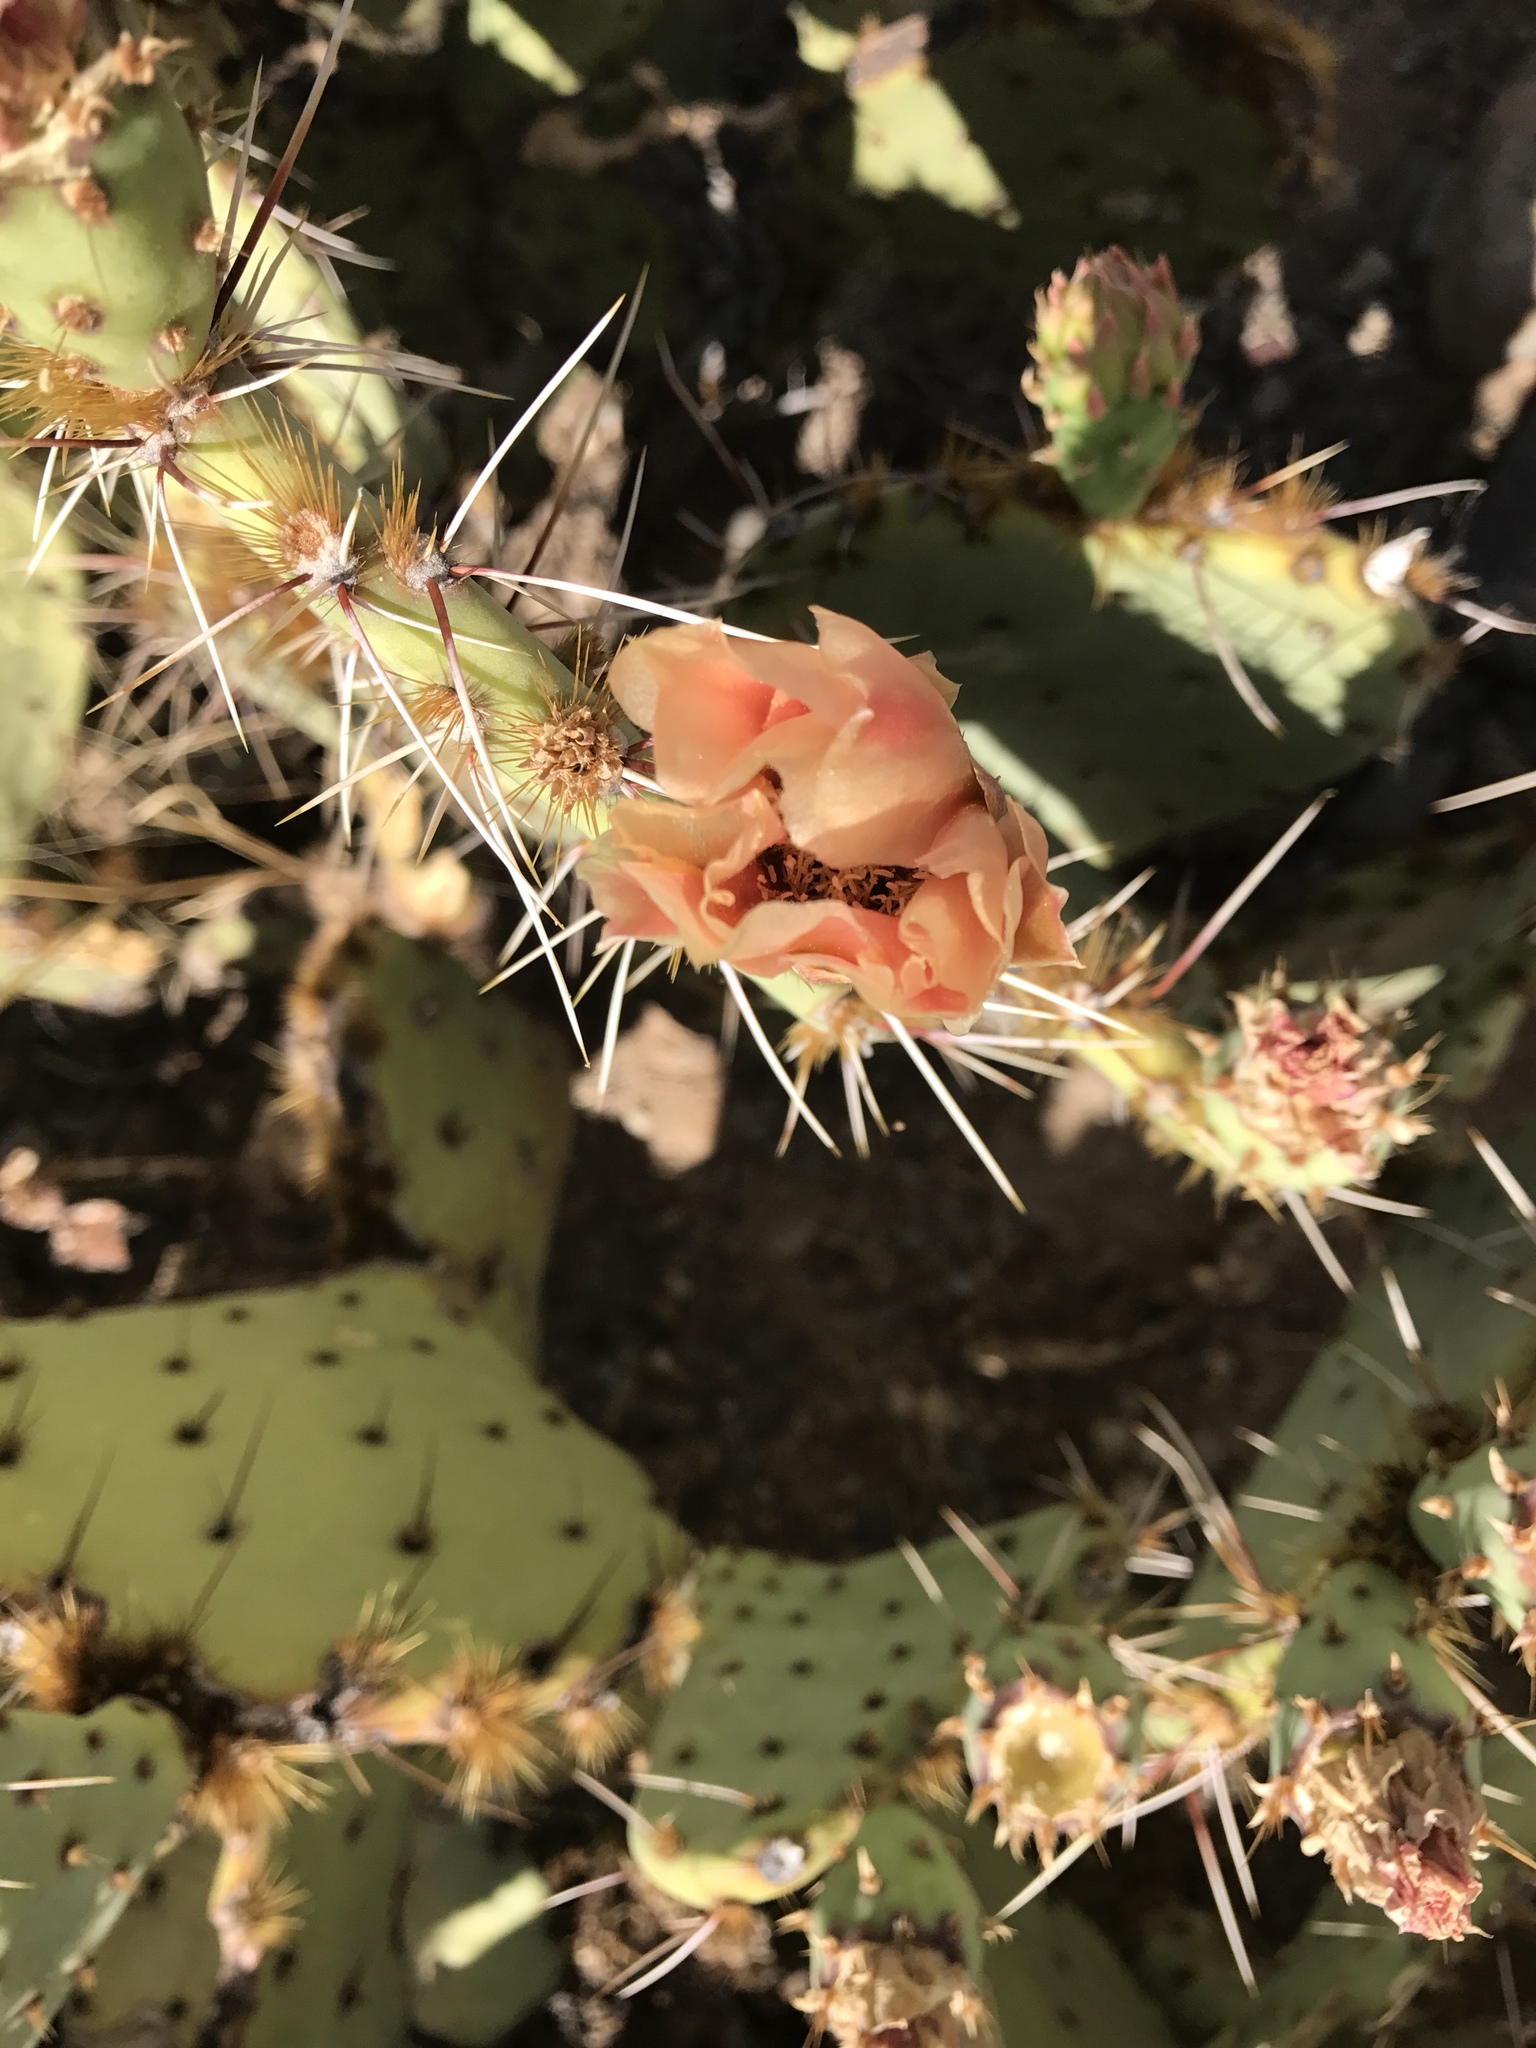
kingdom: Plantae
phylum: Tracheophyta
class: Magnoliopsida
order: Caryophyllales
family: Cactaceae
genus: Opuntia
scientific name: Opuntia engelmannii
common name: Cactus-apple
